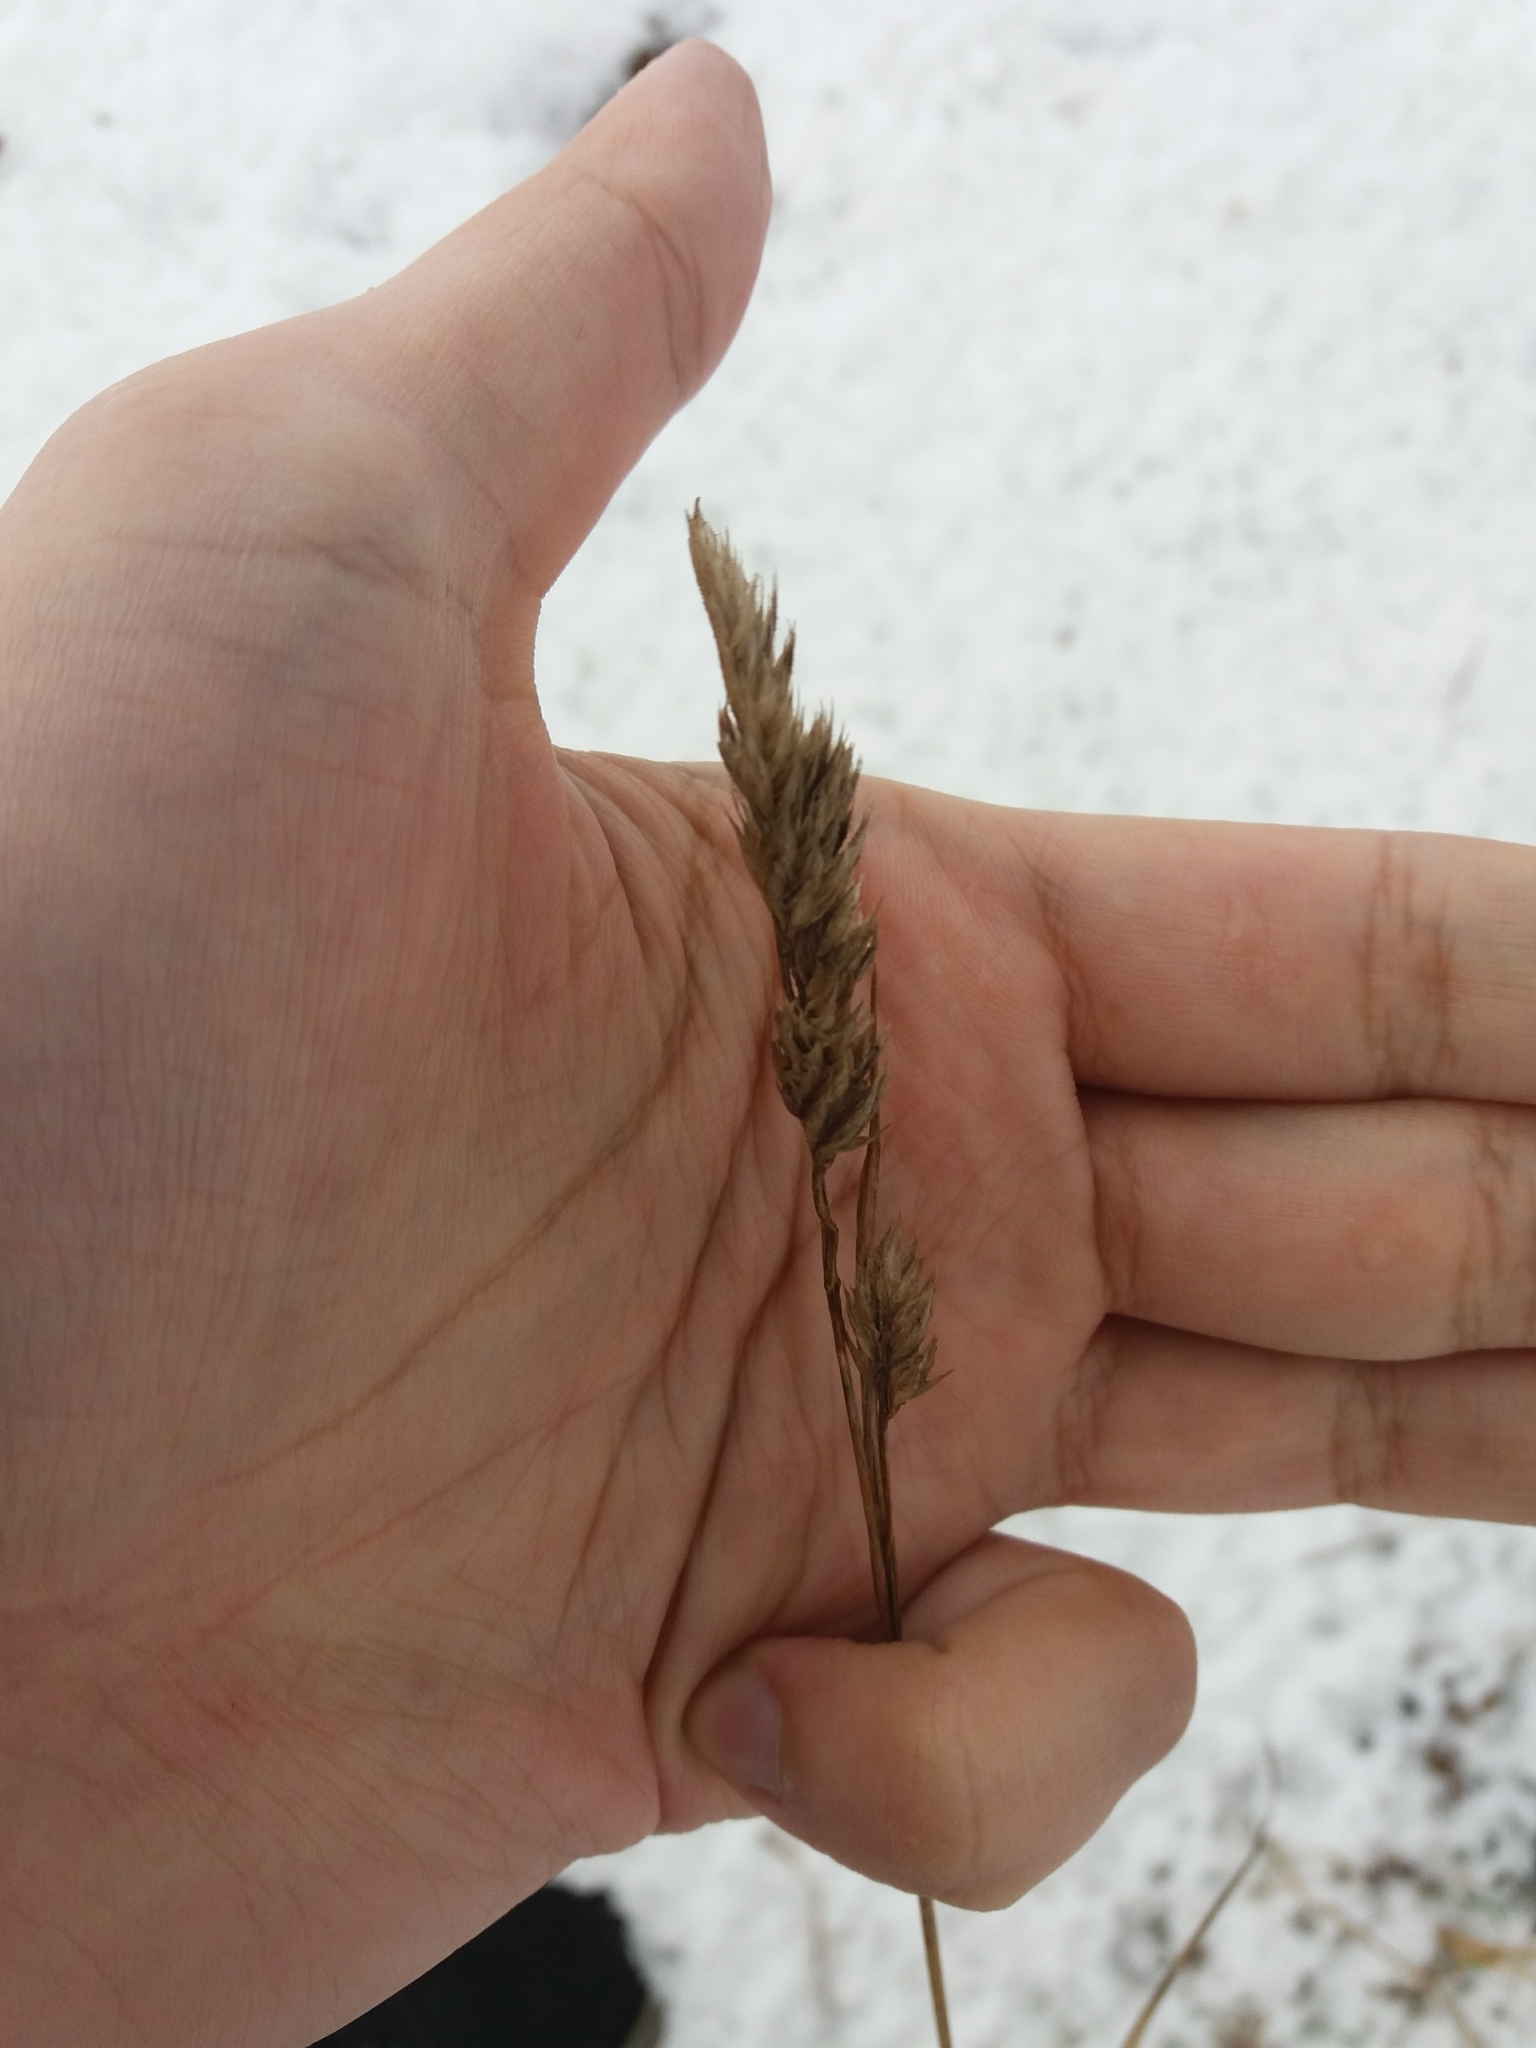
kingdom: Plantae
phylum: Tracheophyta
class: Liliopsida
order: Poales
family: Poaceae
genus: Dactylis
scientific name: Dactylis glomerata
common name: Orchardgrass
